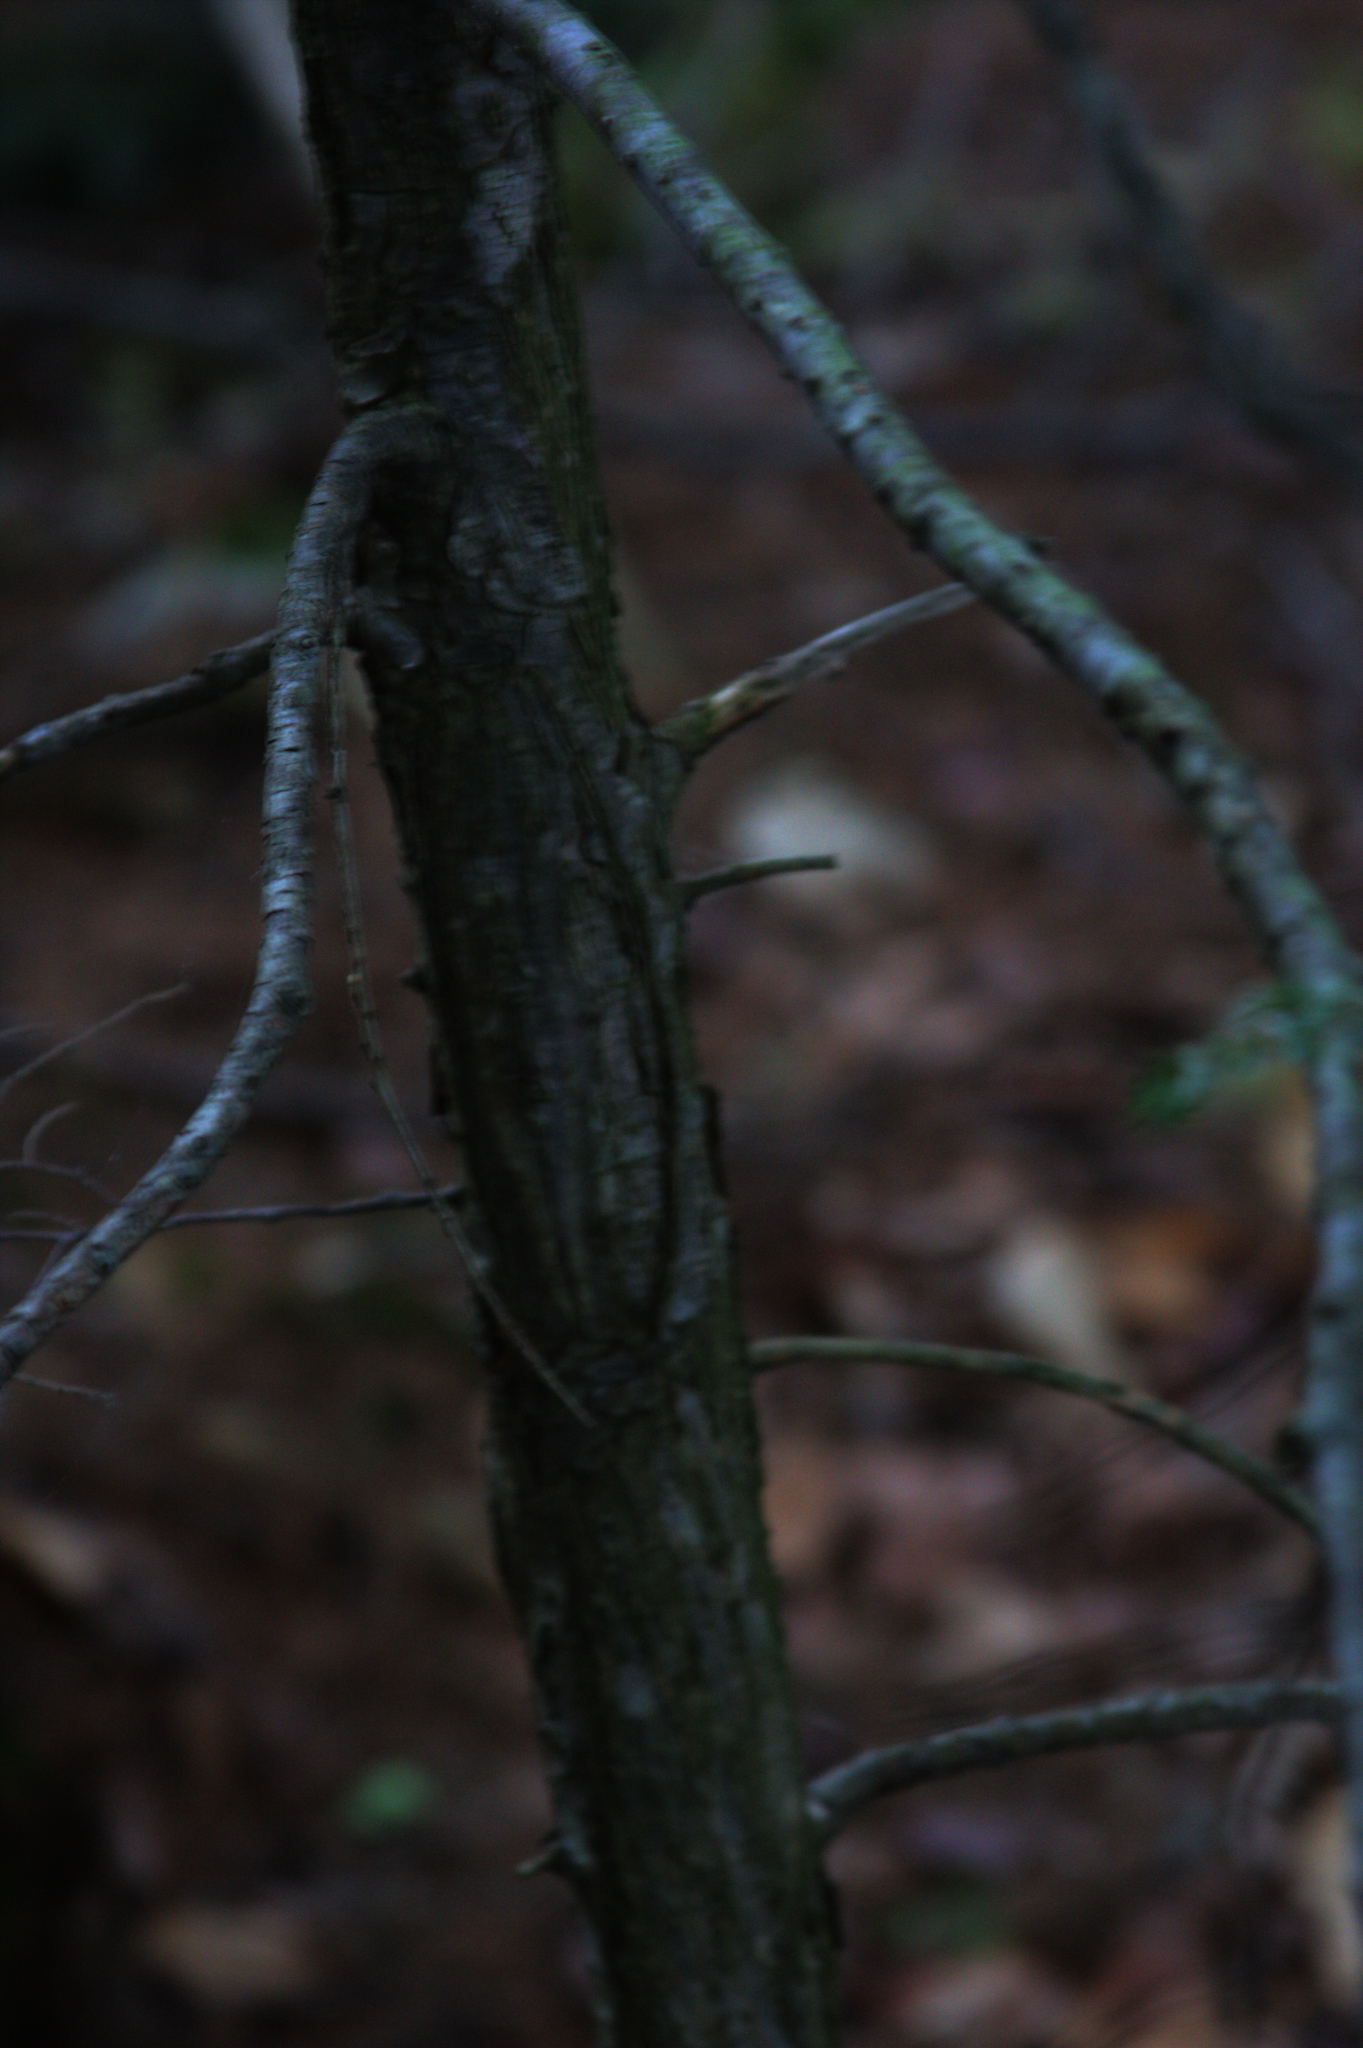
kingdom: Plantae
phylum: Tracheophyta
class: Pinopsida
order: Pinales
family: Pinaceae
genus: Tsuga
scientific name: Tsuga canadensis
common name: Eastern hemlock
